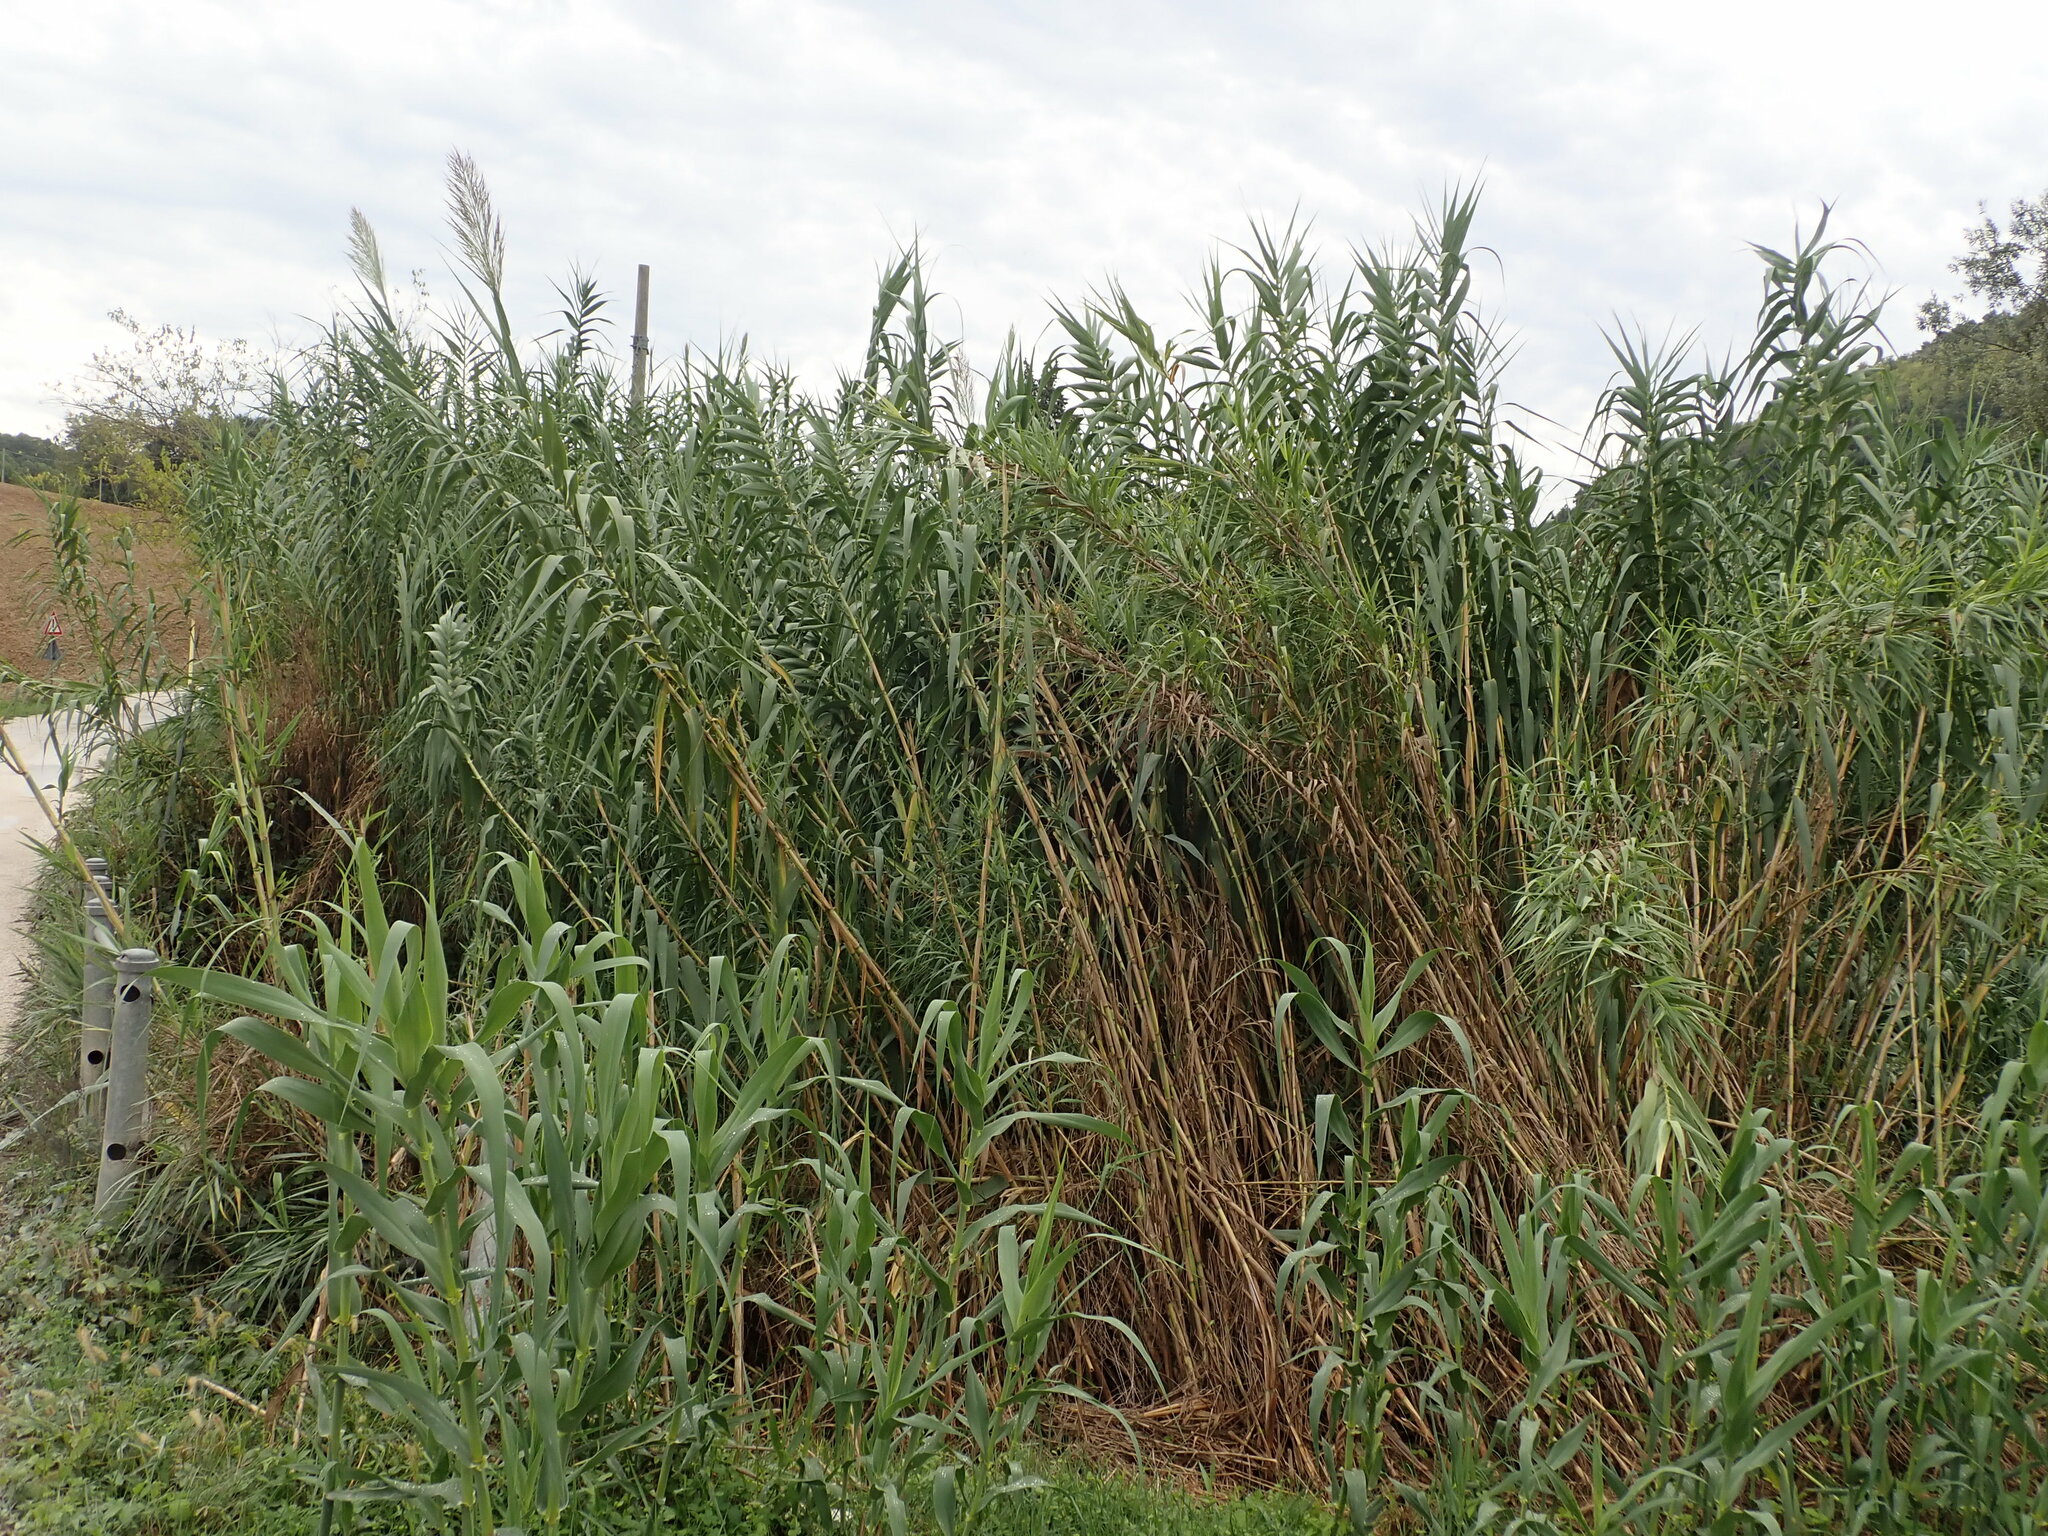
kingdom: Plantae
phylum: Tracheophyta
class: Liliopsida
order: Poales
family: Poaceae
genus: Arundo
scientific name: Arundo donax
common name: Giant reed
